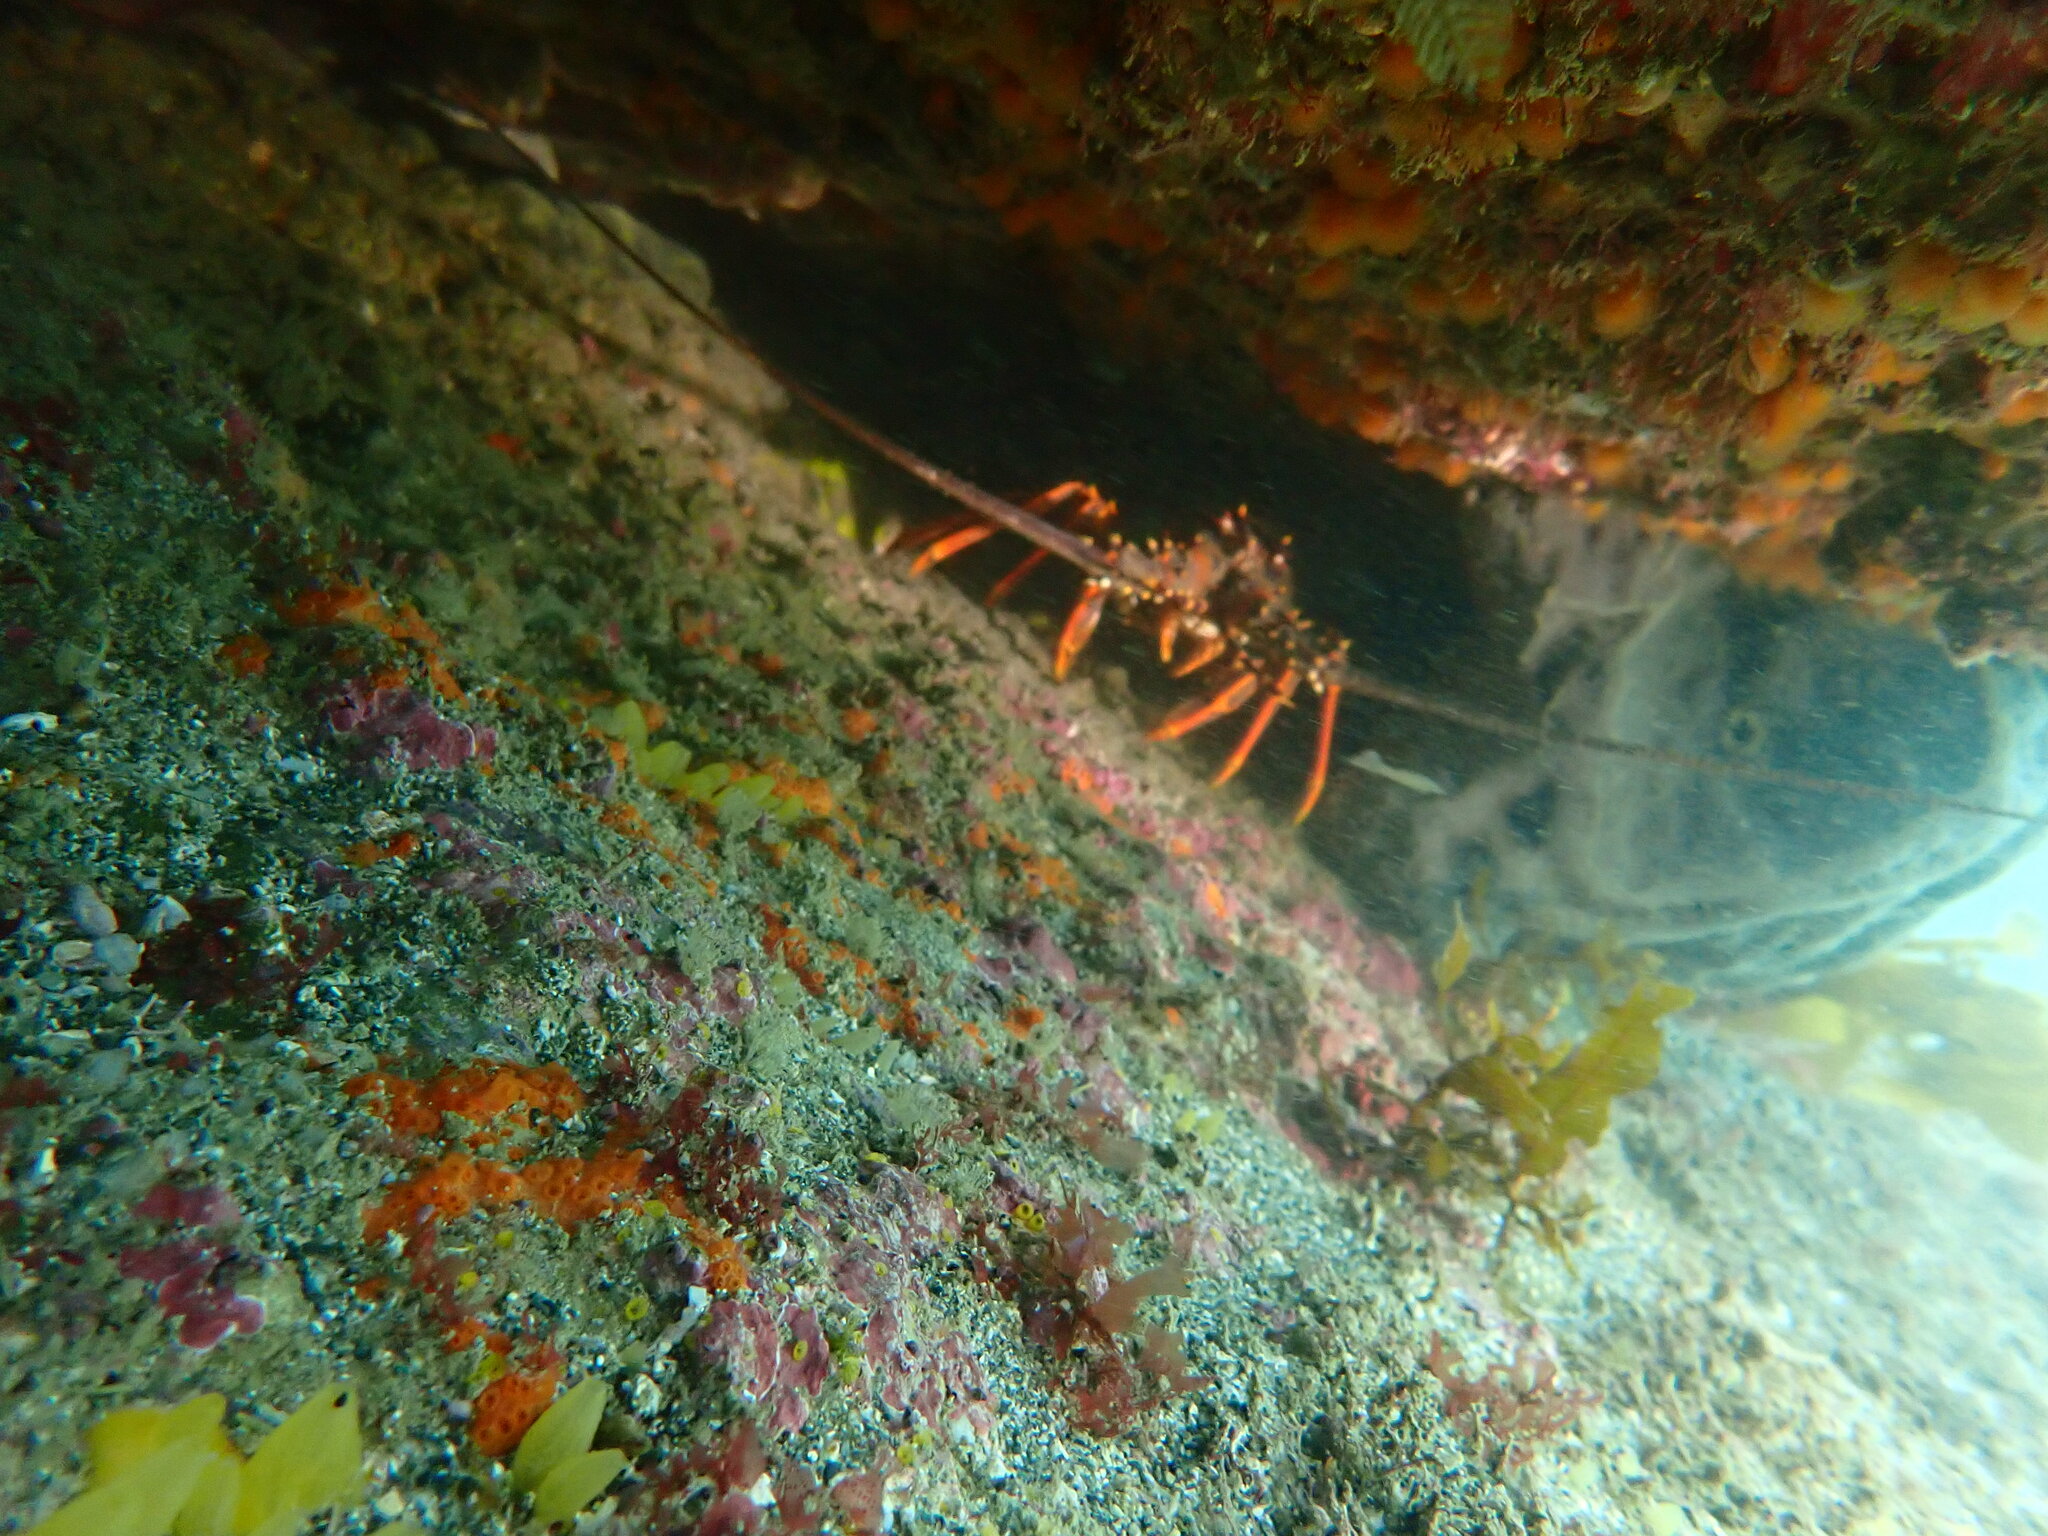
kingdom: Animalia
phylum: Arthropoda
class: Malacostraca
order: Decapoda
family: Palinuridae
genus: Jasus
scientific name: Jasus edwardsii
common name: Red rock lobster
